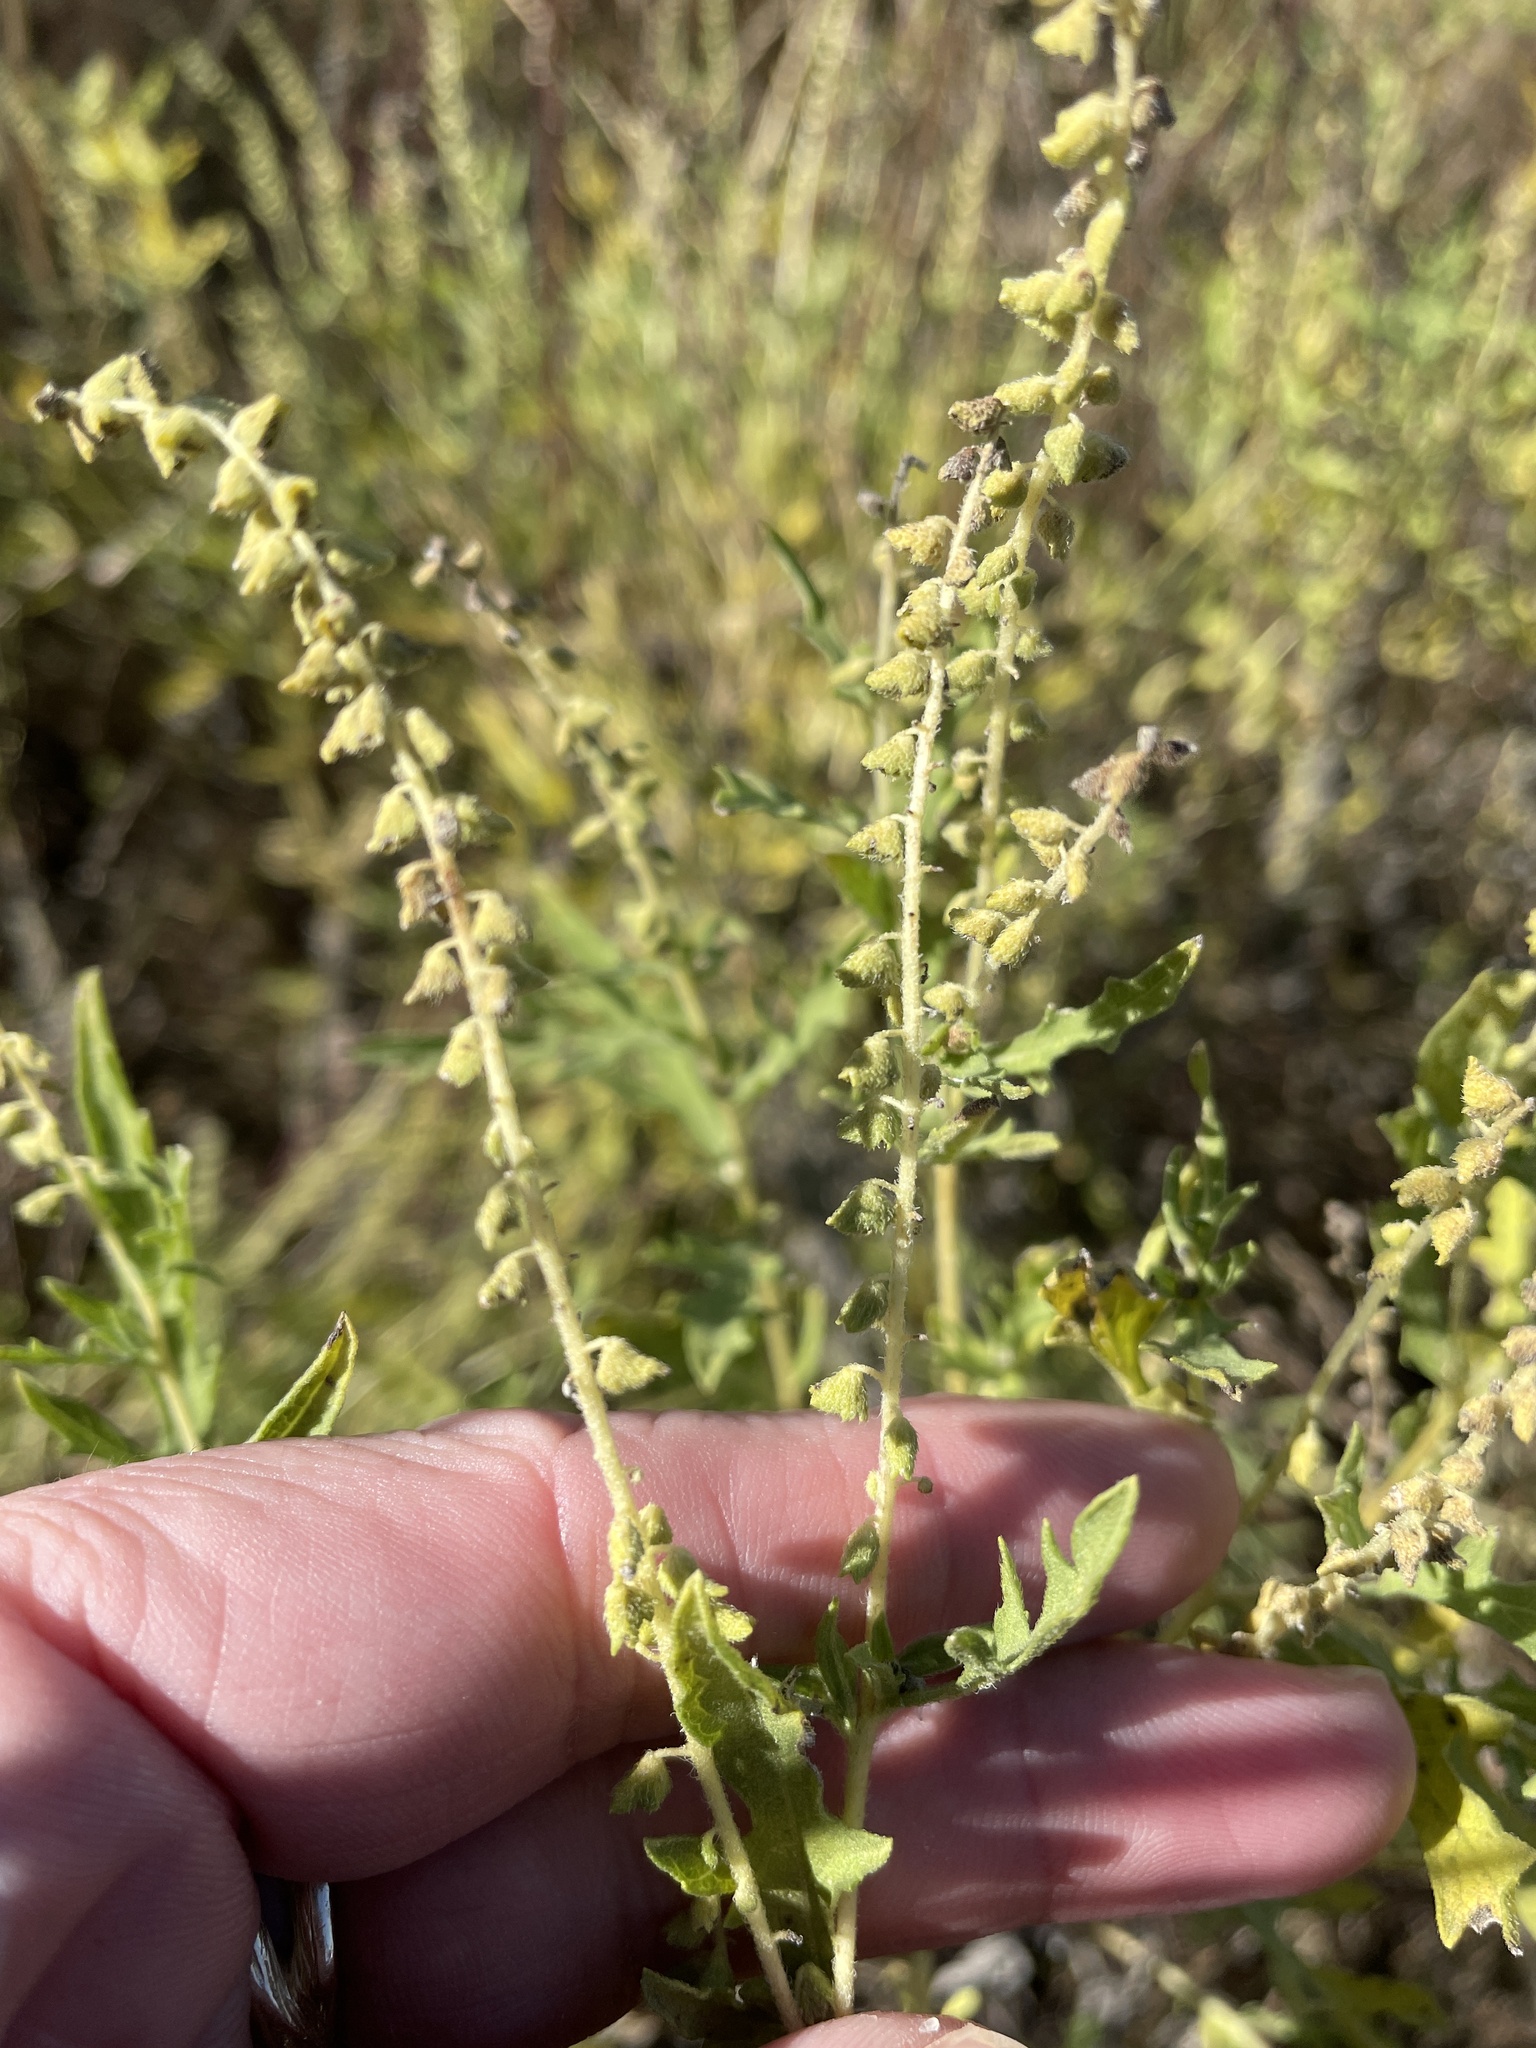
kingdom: Plantae
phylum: Tracheophyta
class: Magnoliopsida
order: Asterales
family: Asteraceae
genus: Ambrosia
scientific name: Ambrosia psilostachya
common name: Perennial ragweed
